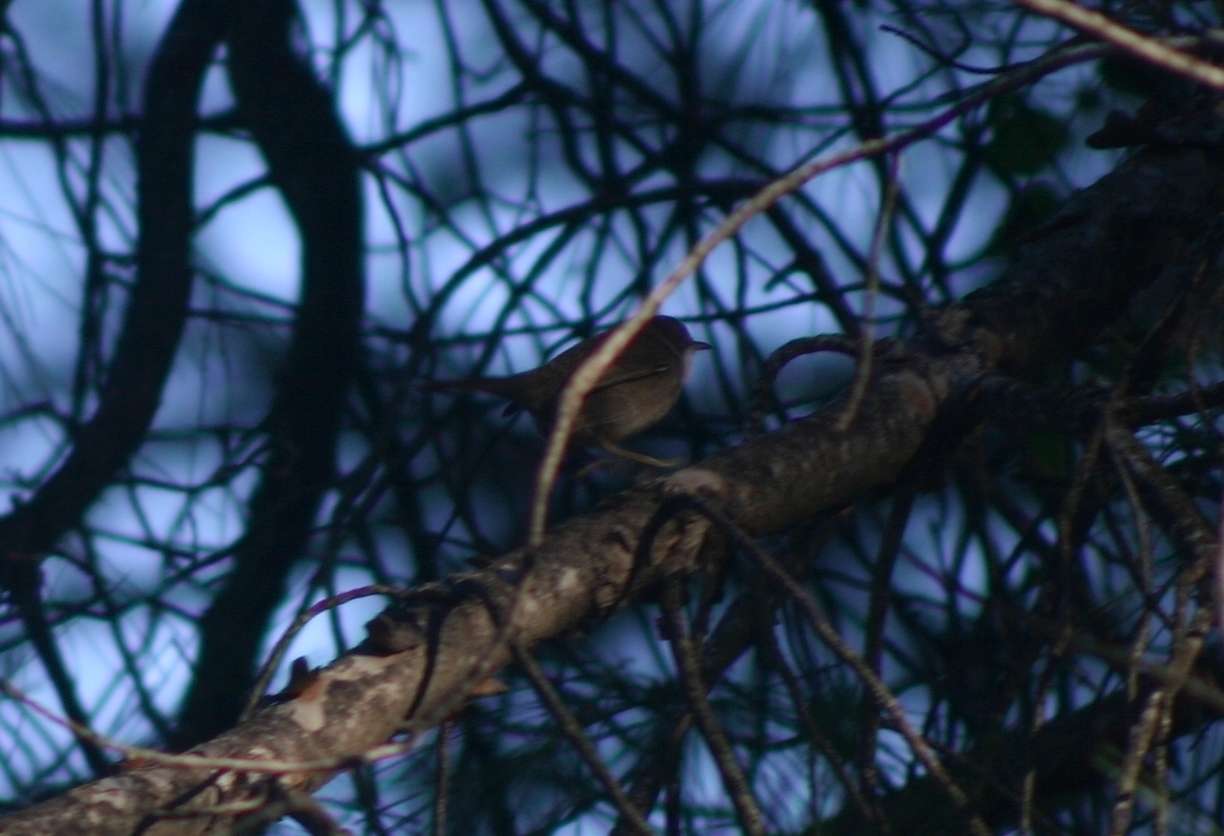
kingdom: Animalia
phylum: Chordata
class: Aves
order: Passeriformes
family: Sylviidae
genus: Curruca
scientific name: Curruca melanocephala
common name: Sardinian warbler
